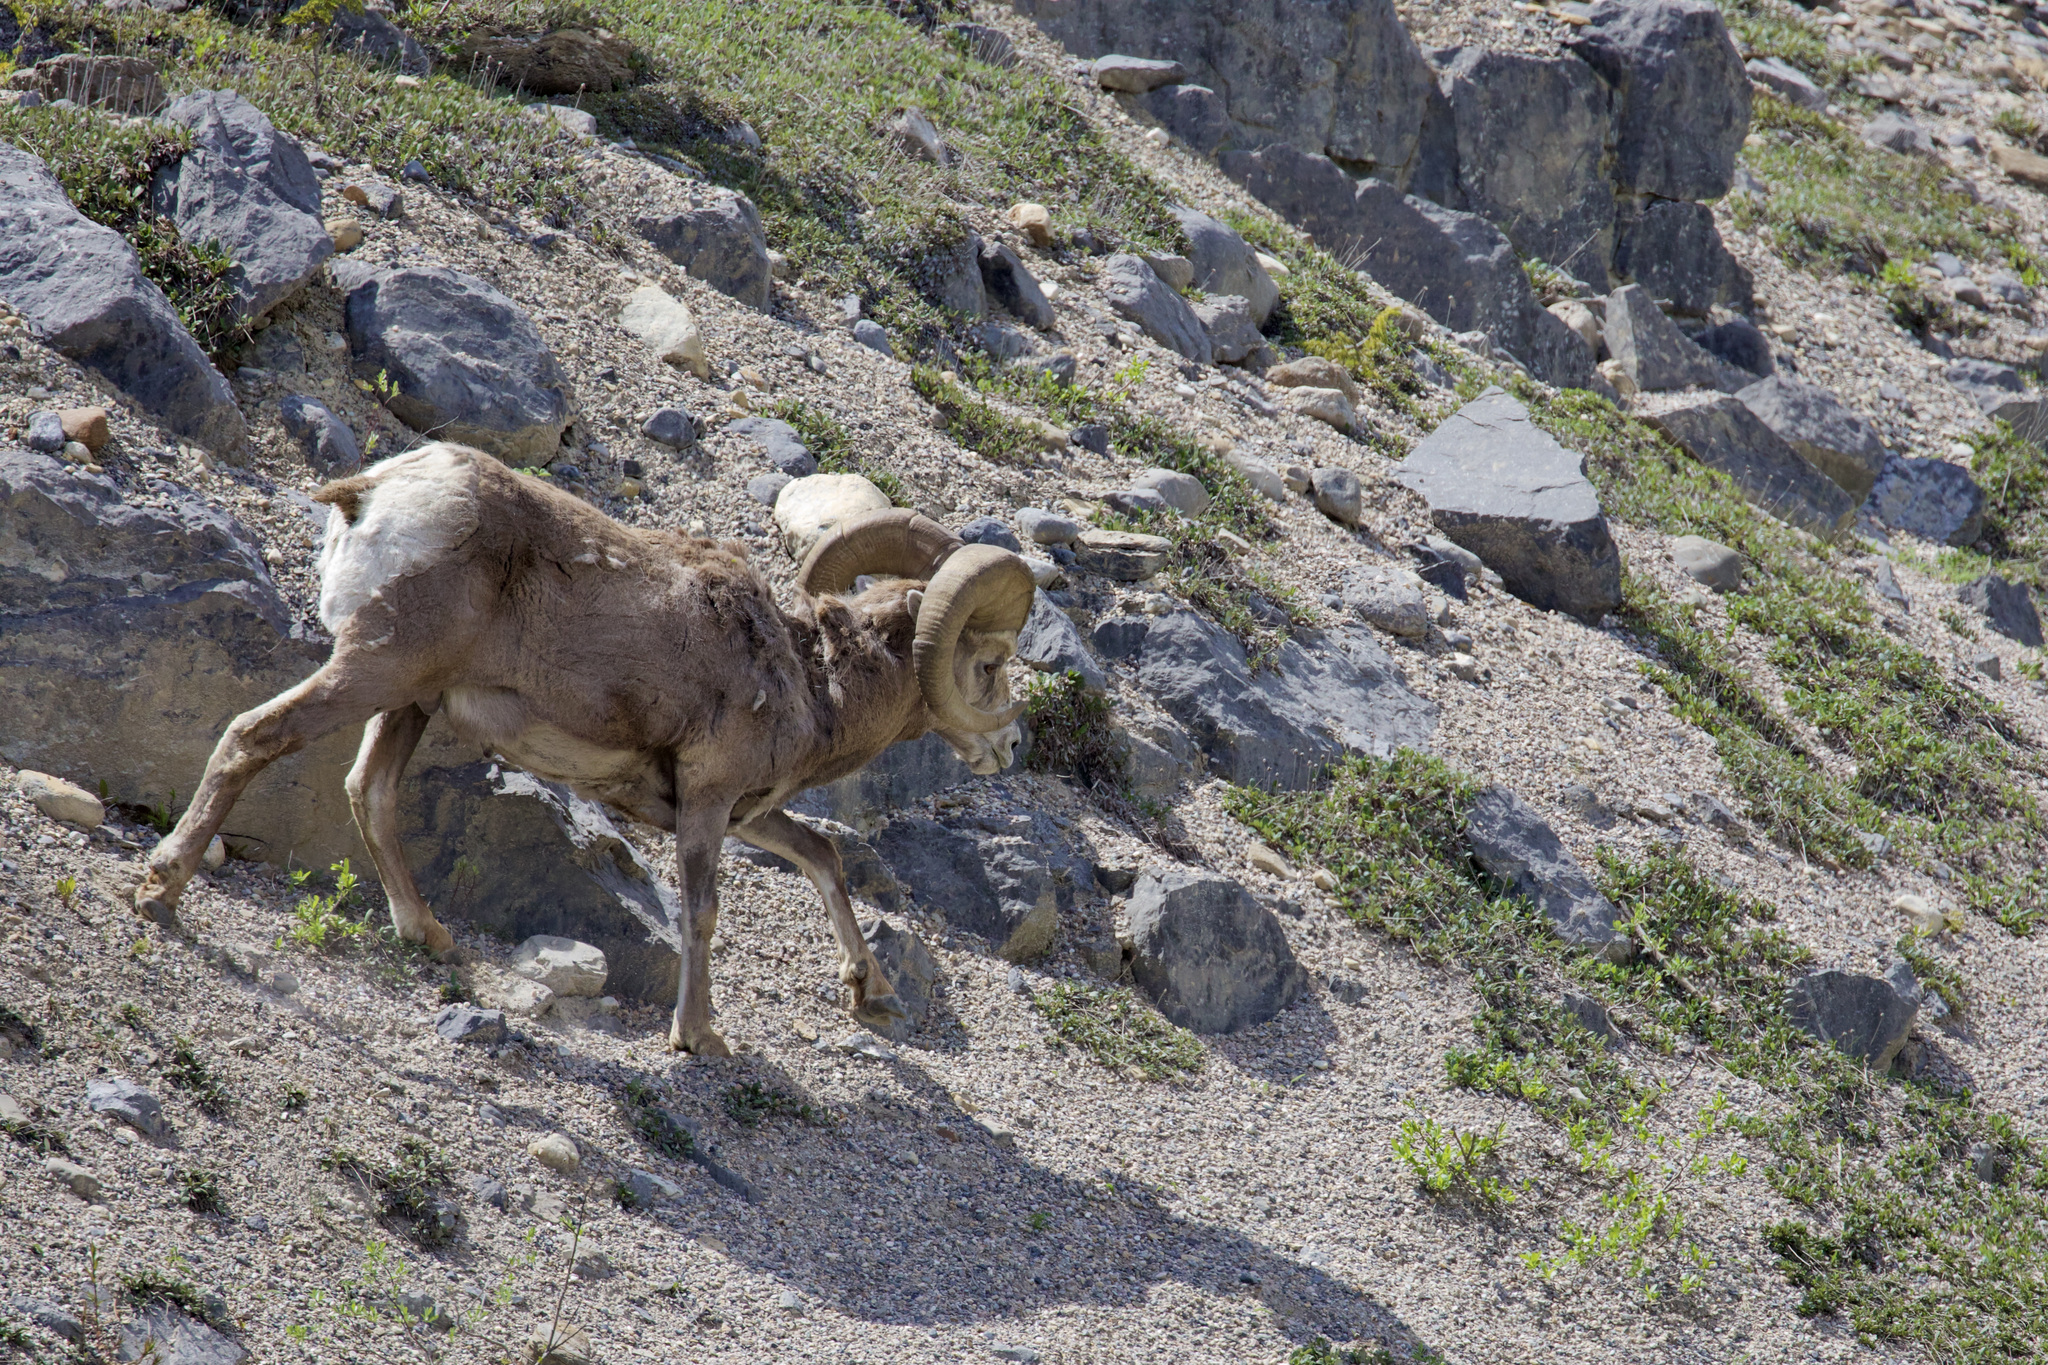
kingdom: Animalia
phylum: Chordata
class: Mammalia
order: Artiodactyla
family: Bovidae
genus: Ovis
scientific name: Ovis canadensis
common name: Bighorn sheep
